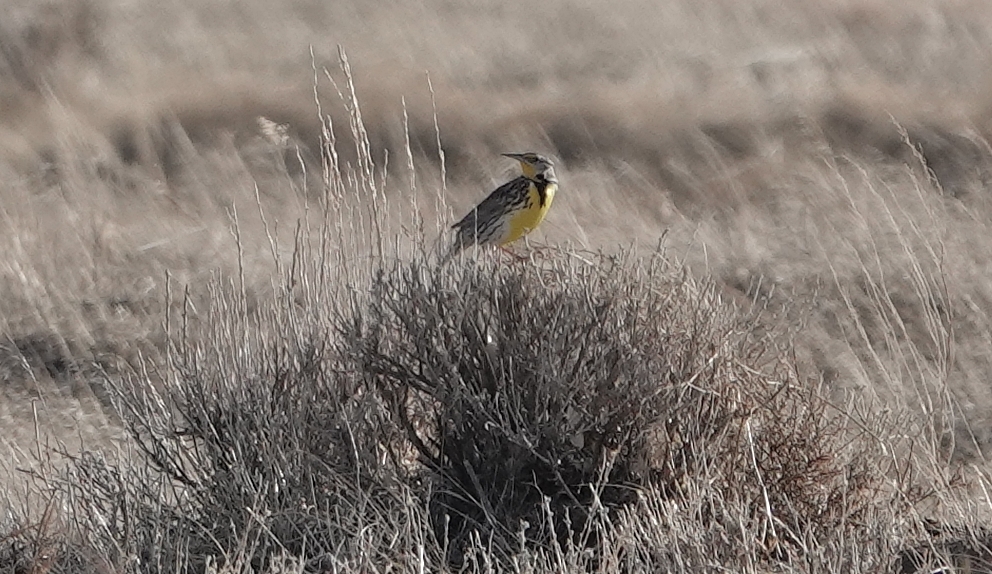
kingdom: Animalia
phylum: Chordata
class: Aves
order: Passeriformes
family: Icteridae
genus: Sturnella
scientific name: Sturnella neglecta
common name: Western meadowlark
